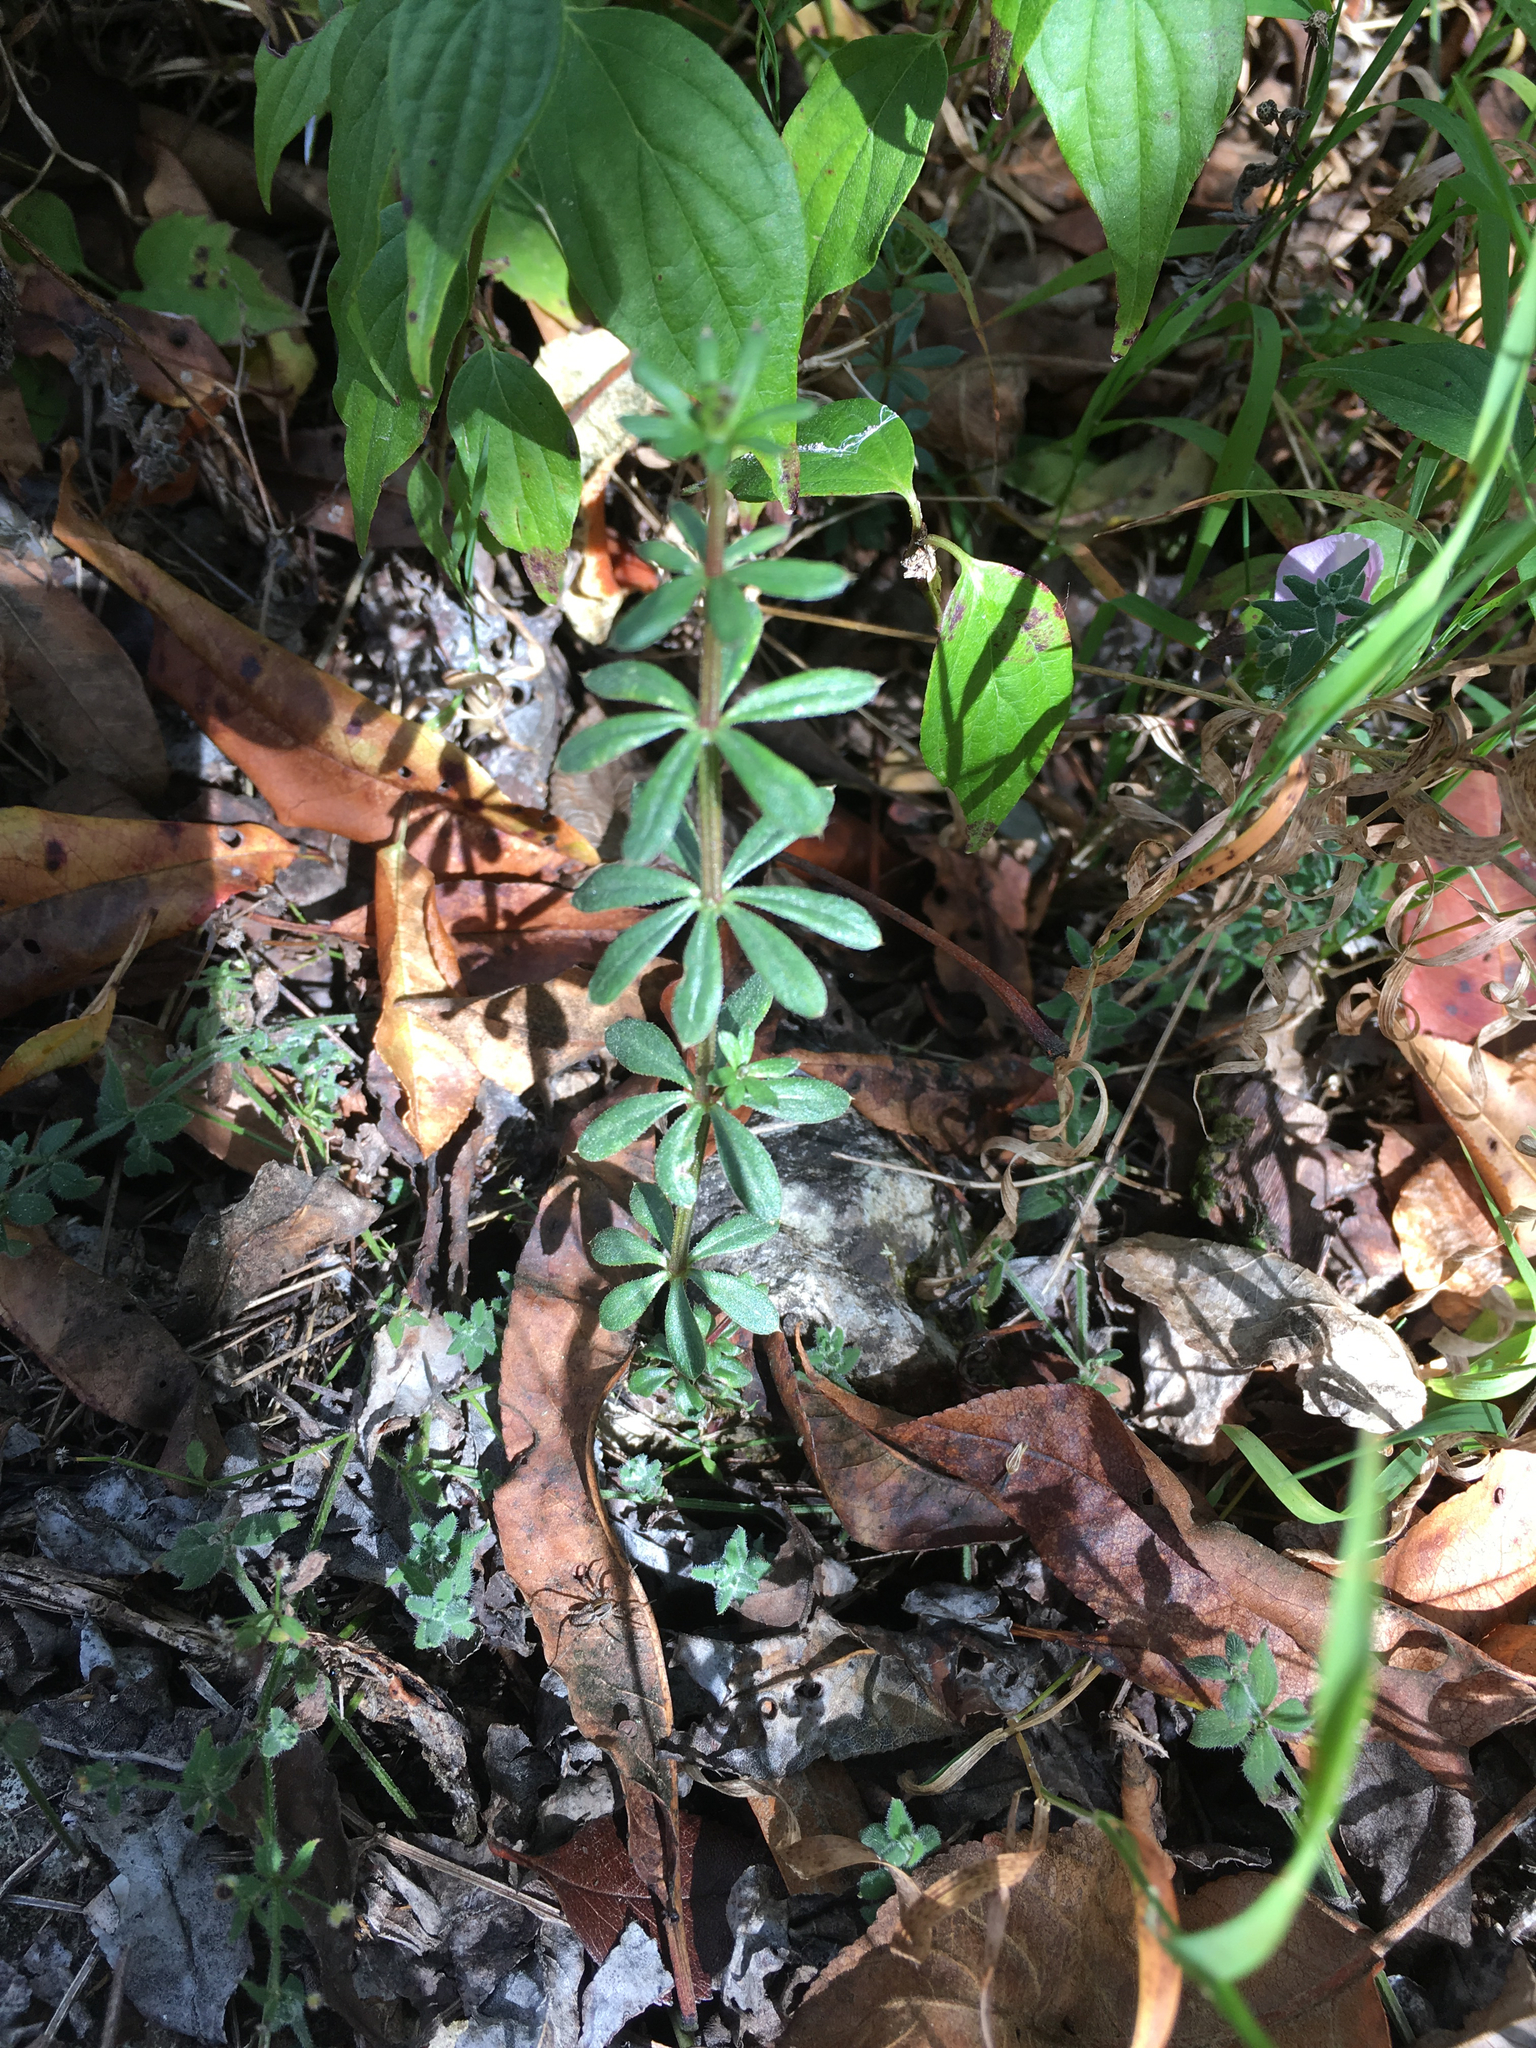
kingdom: Plantae
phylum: Tracheophyta
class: Magnoliopsida
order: Gentianales
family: Rubiaceae
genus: Galium
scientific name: Galium aschenbornii
